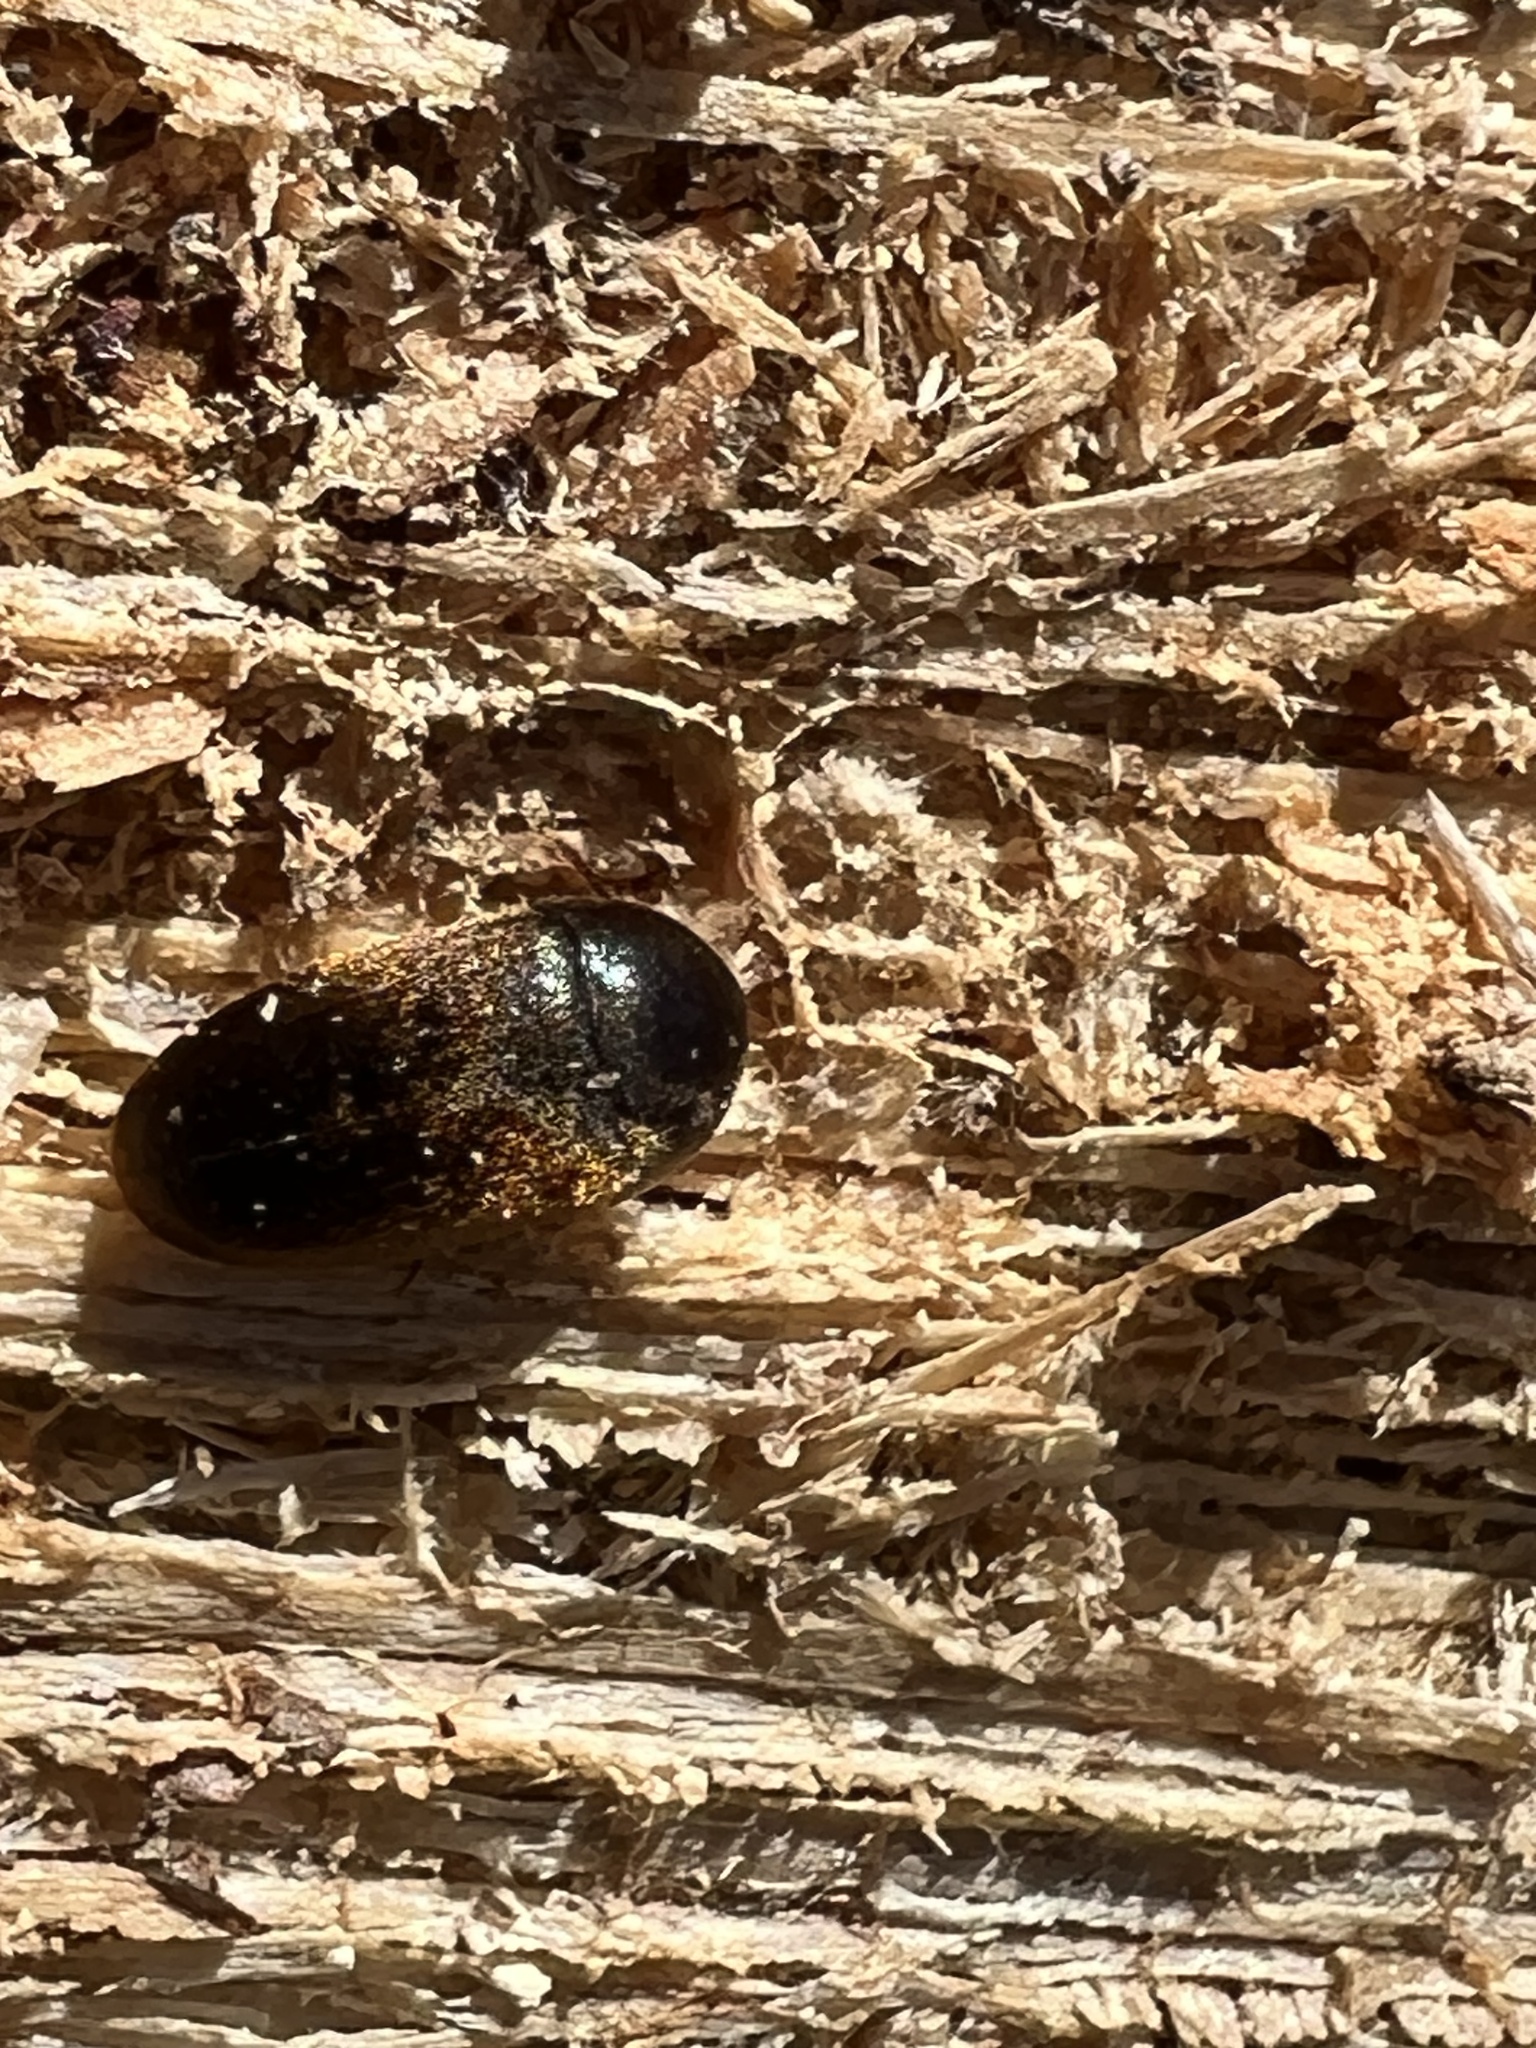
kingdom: Animalia
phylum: Arthropoda
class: Insecta
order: Coleoptera
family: Tetratomidae
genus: Eustrophus
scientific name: Eustrophus tomentosus
